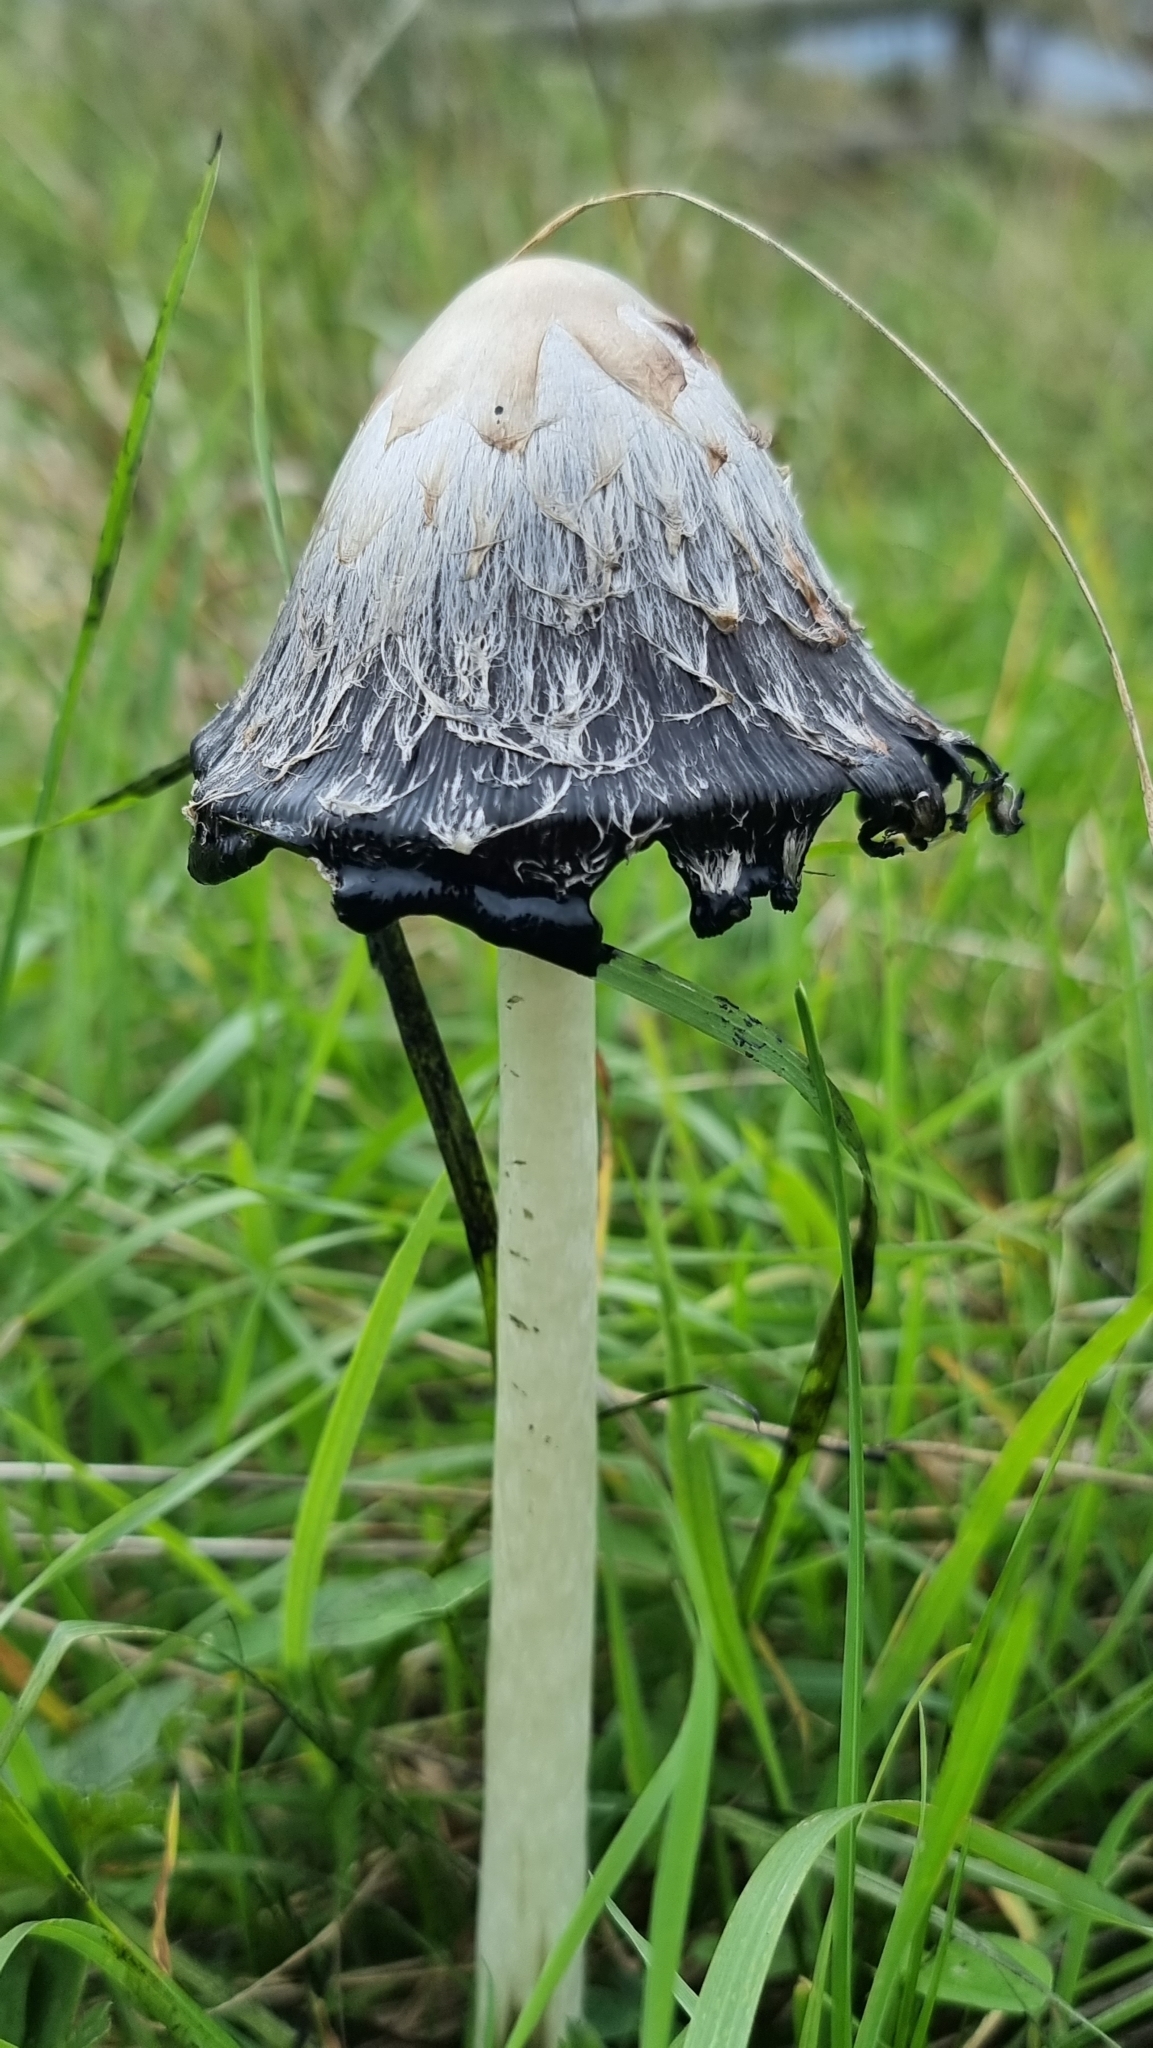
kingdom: Fungi
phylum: Basidiomycota
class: Agaricomycetes
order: Agaricales
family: Agaricaceae
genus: Coprinus
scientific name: Coprinus comatus
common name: Lawyer's wig
